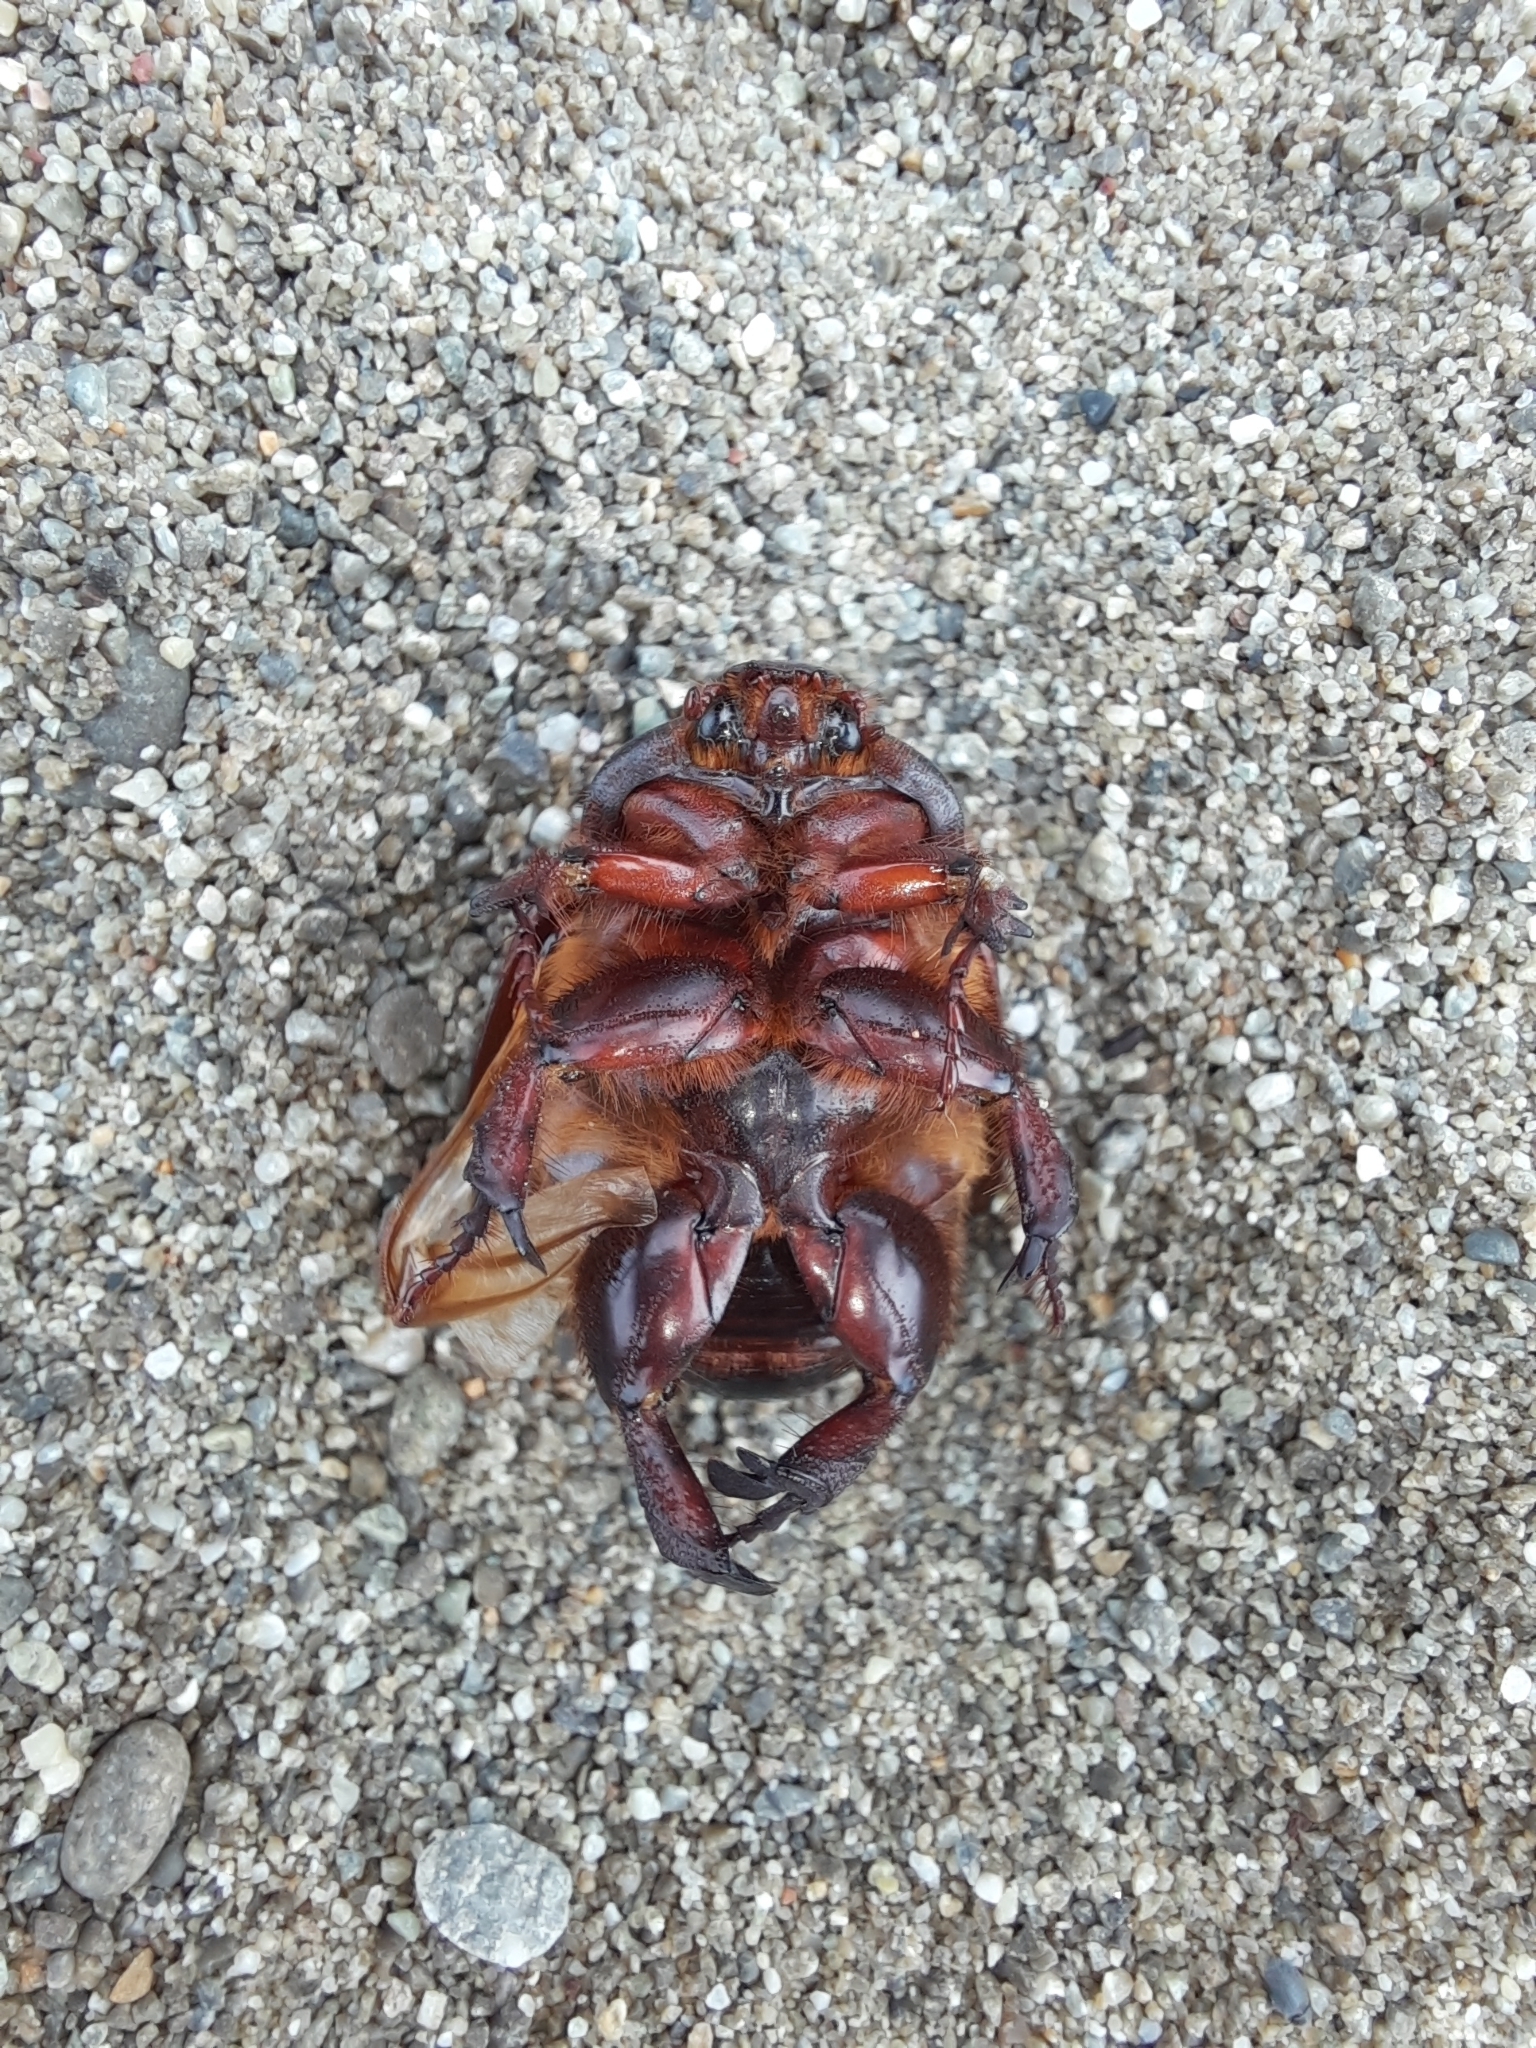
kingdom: Animalia
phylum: Arthropoda
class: Insecta
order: Coleoptera
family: Scarabaeidae
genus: Pericoptus
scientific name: Pericoptus truncatus
